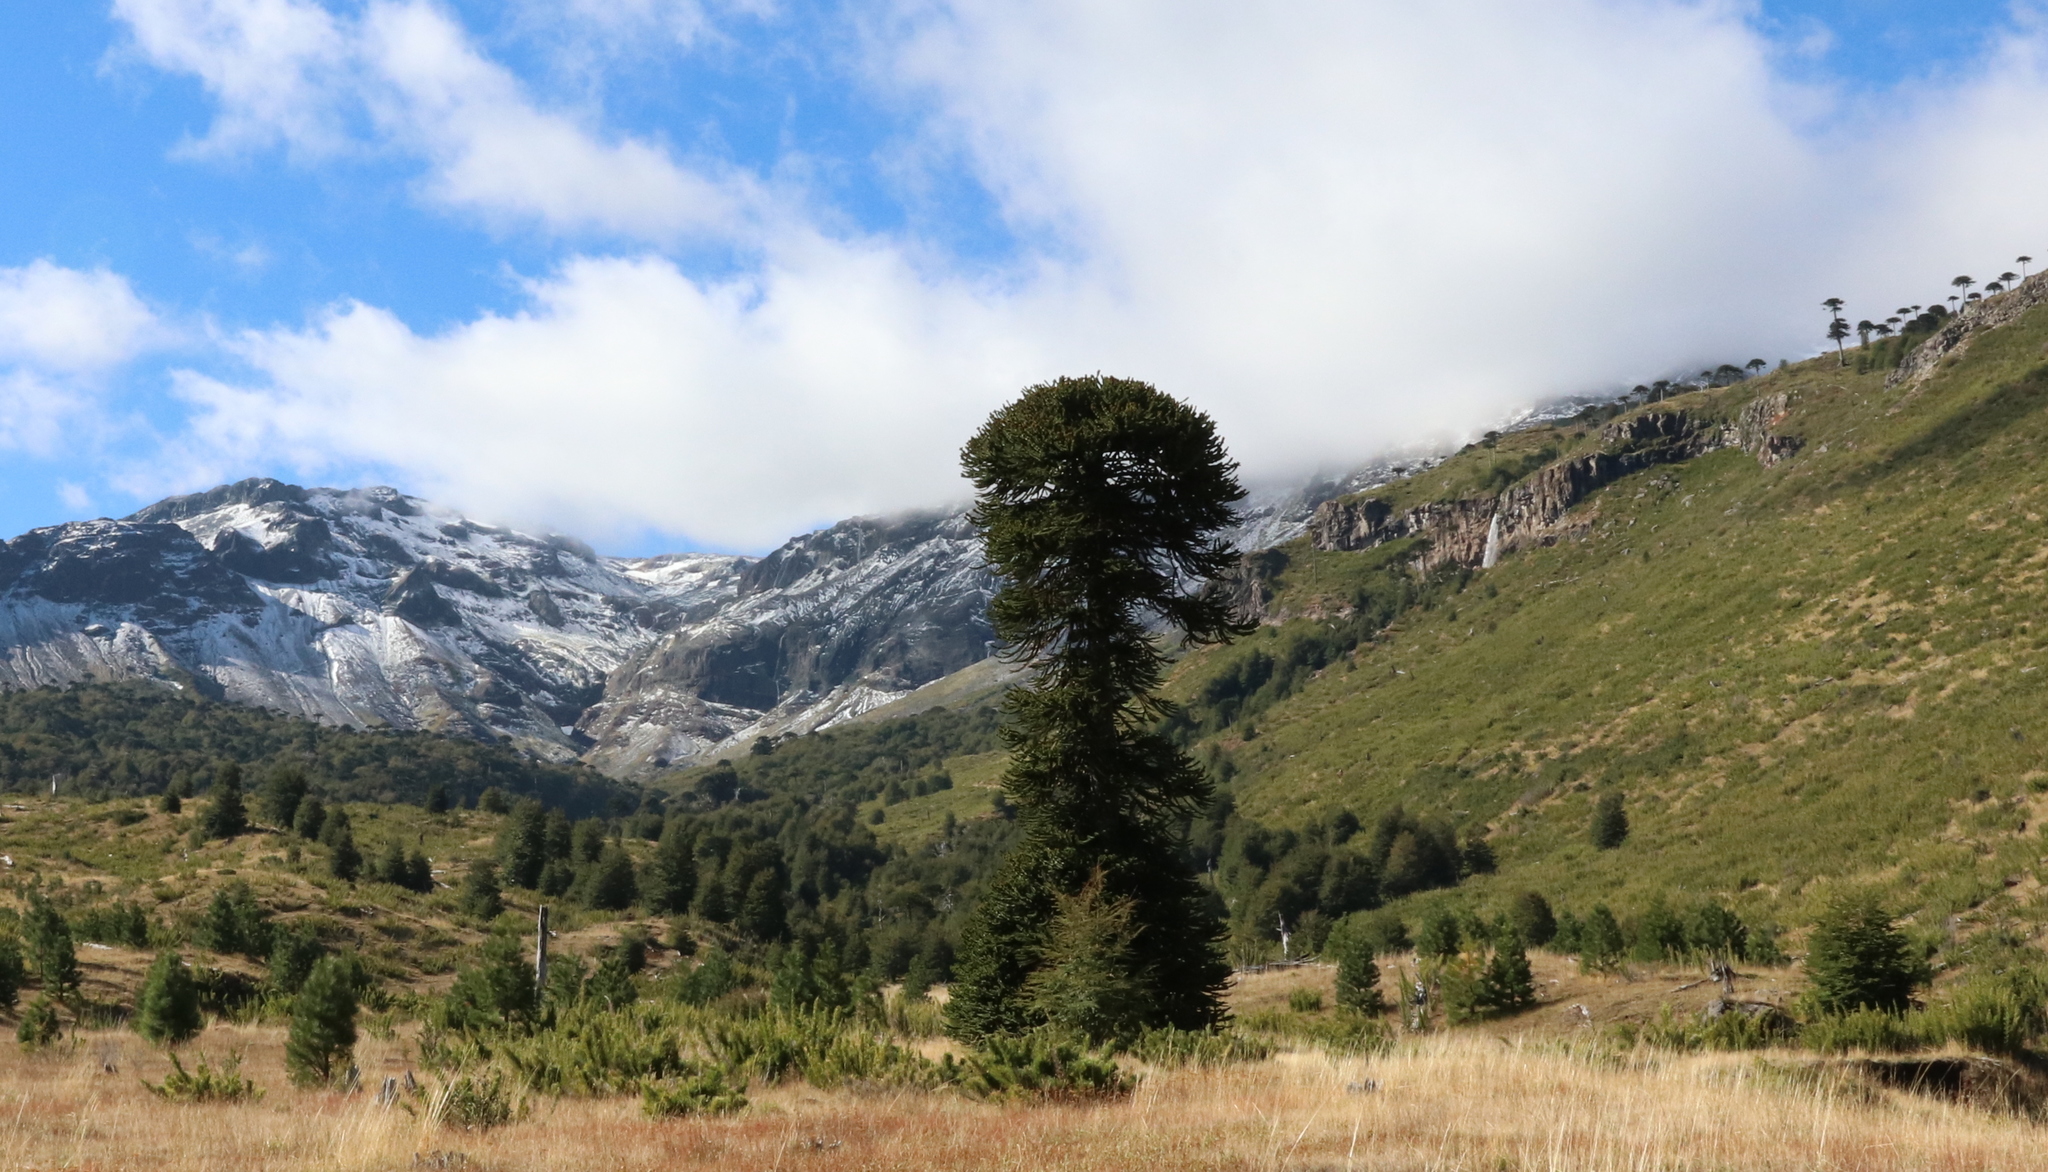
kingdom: Plantae
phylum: Tracheophyta
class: Pinopsida
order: Pinales
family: Araucariaceae
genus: Araucaria
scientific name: Araucaria araucana
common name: Monkey-puzzle
